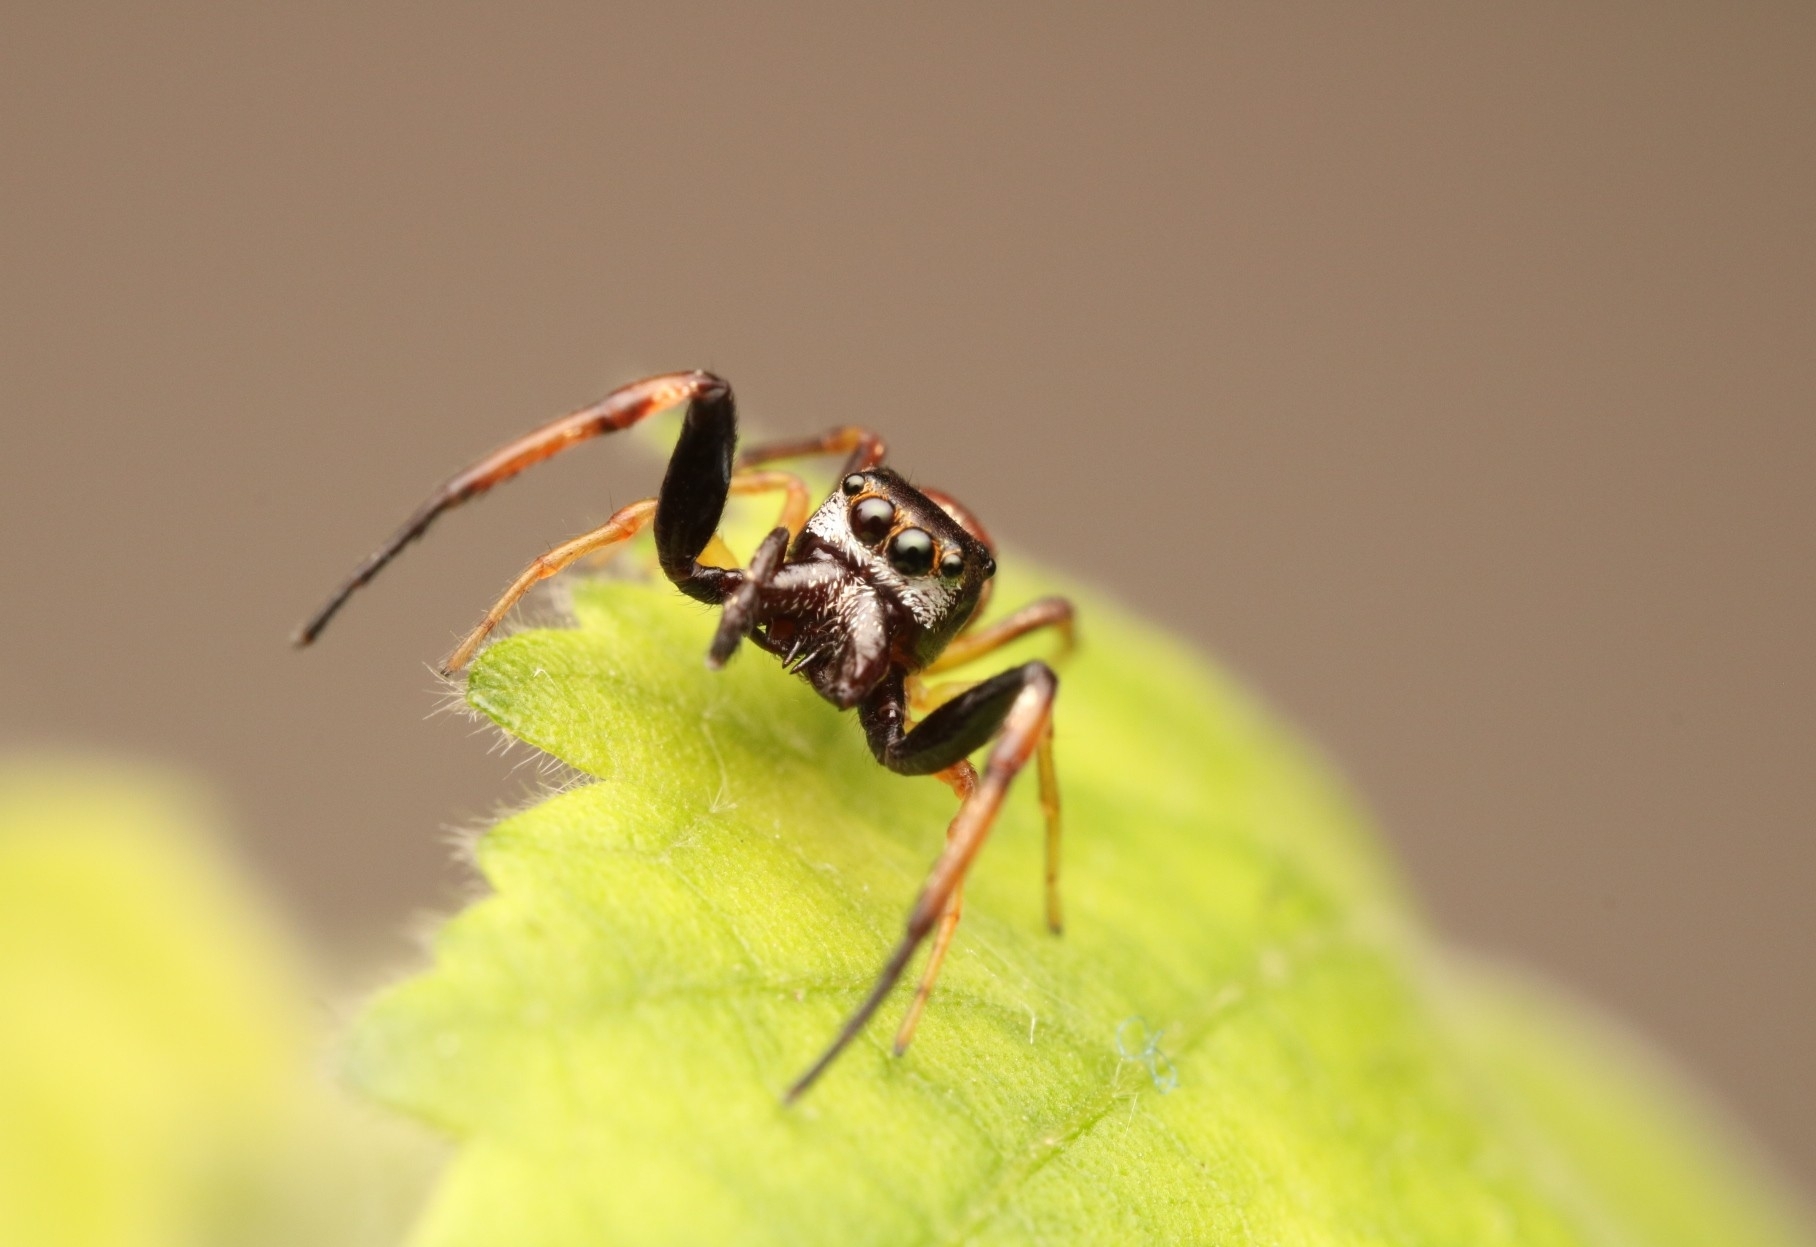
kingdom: Animalia
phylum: Arthropoda
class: Arachnida
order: Araneae
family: Salticidae
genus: Zygoballus
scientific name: Zygoballus rufipes
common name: Jumping spiders
